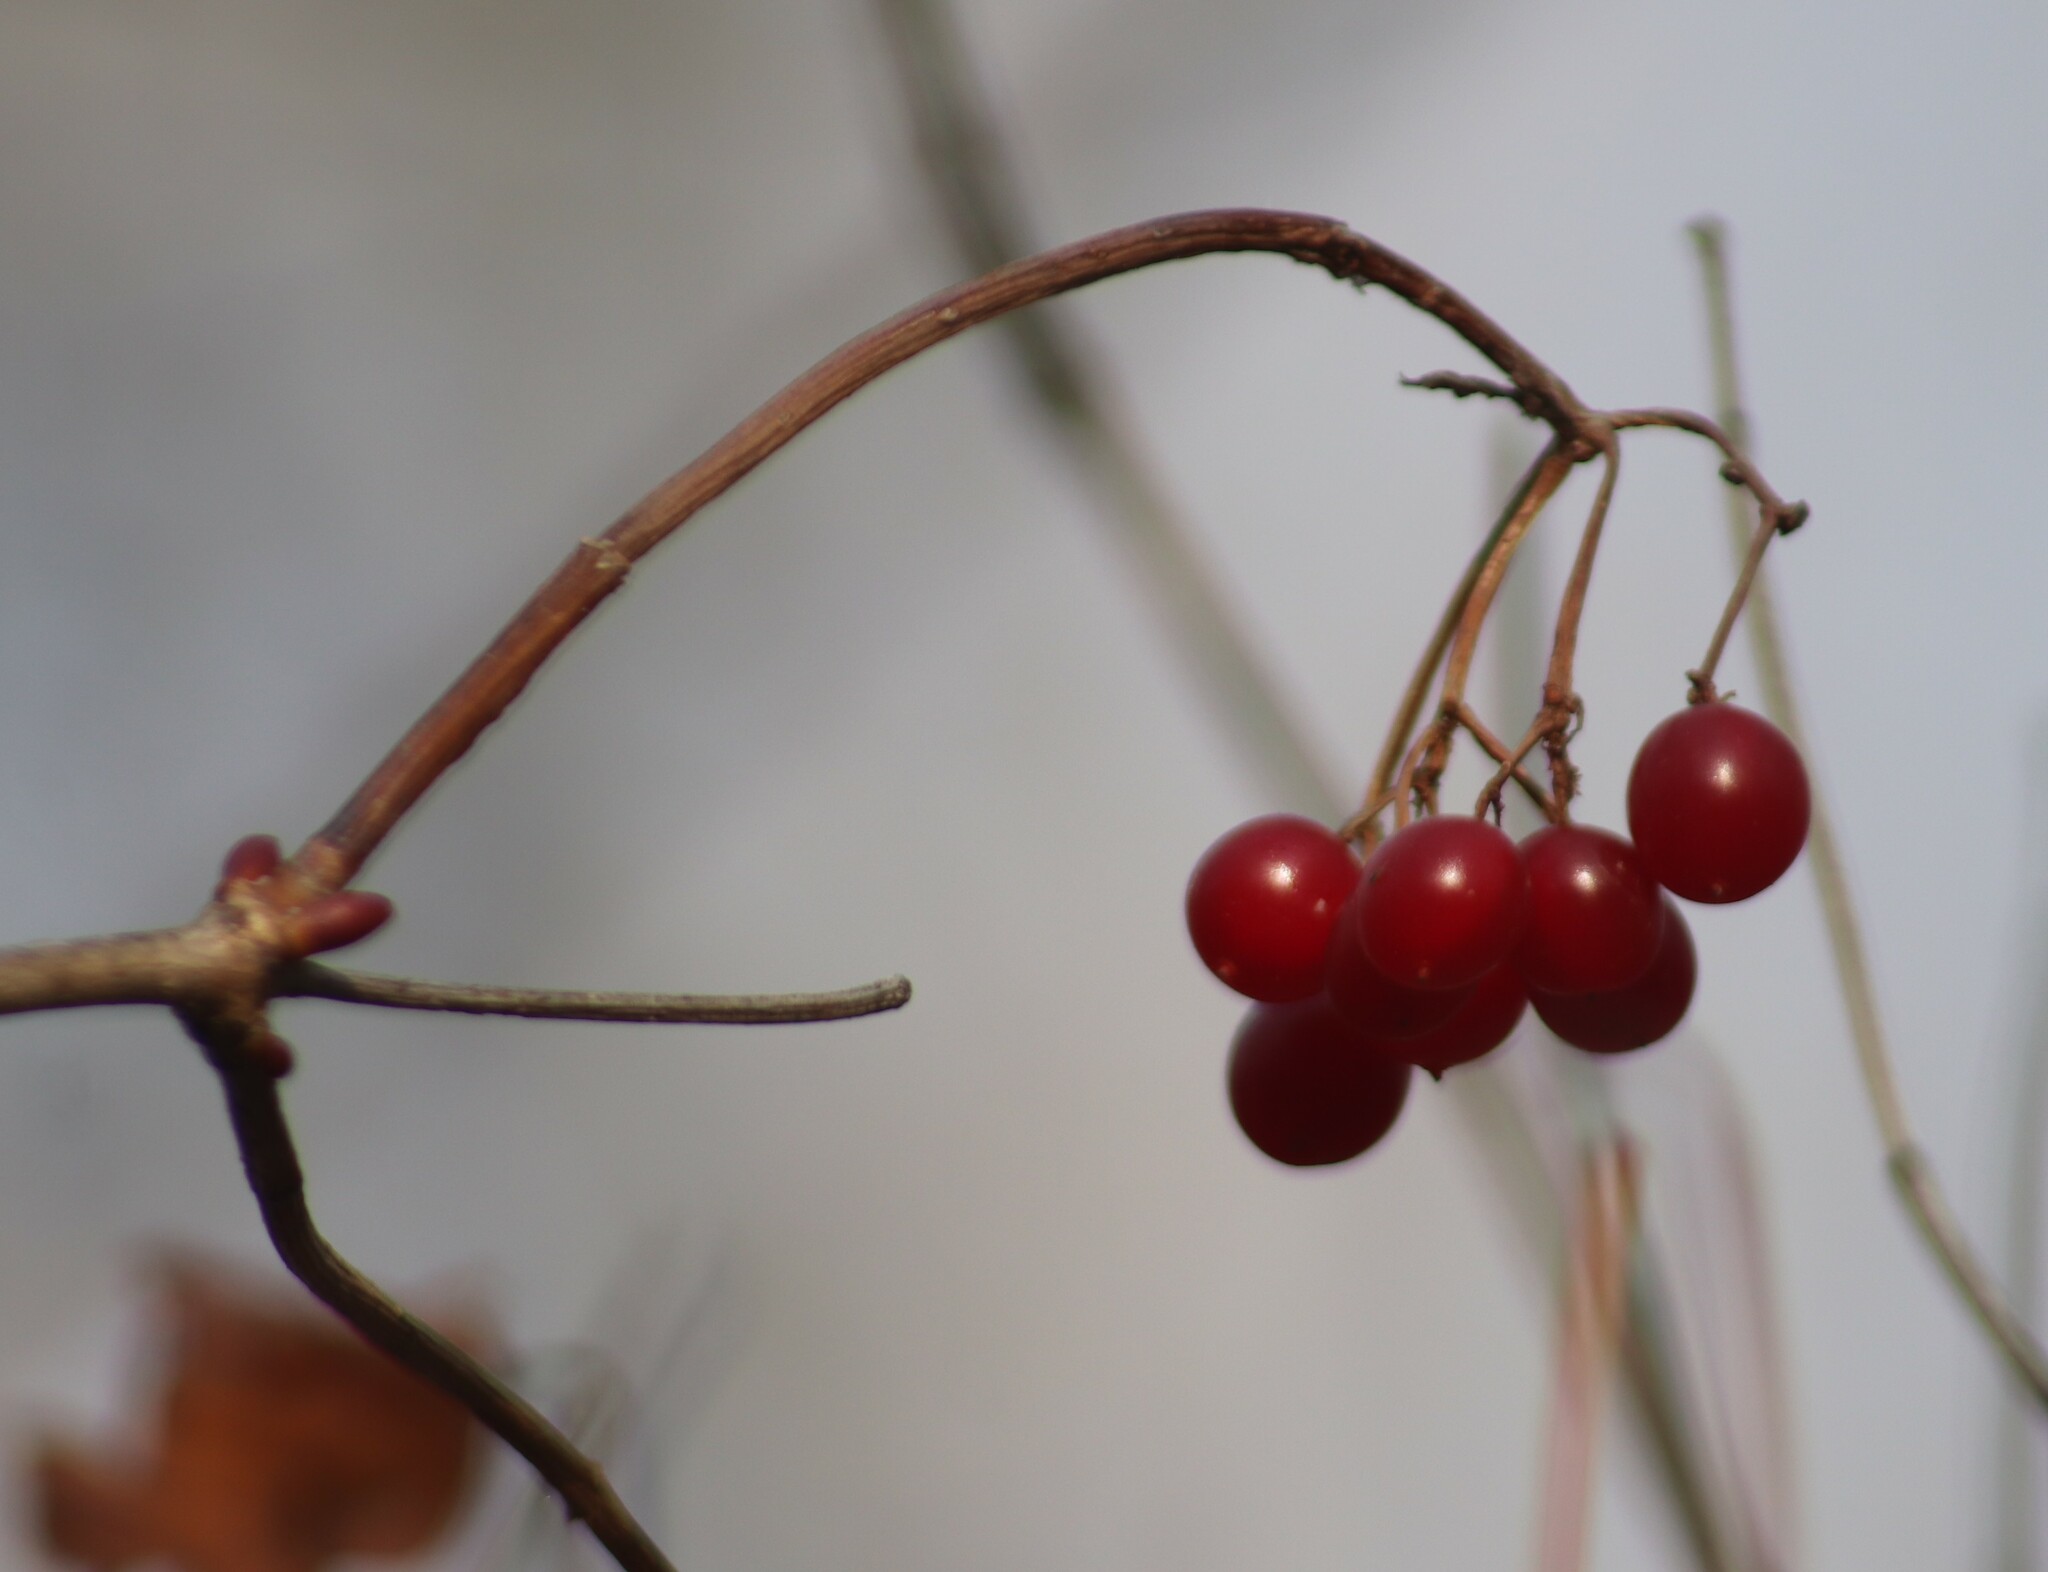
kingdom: Plantae
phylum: Tracheophyta
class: Magnoliopsida
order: Dipsacales
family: Viburnaceae
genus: Viburnum
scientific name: Viburnum opulus
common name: Guelder-rose
